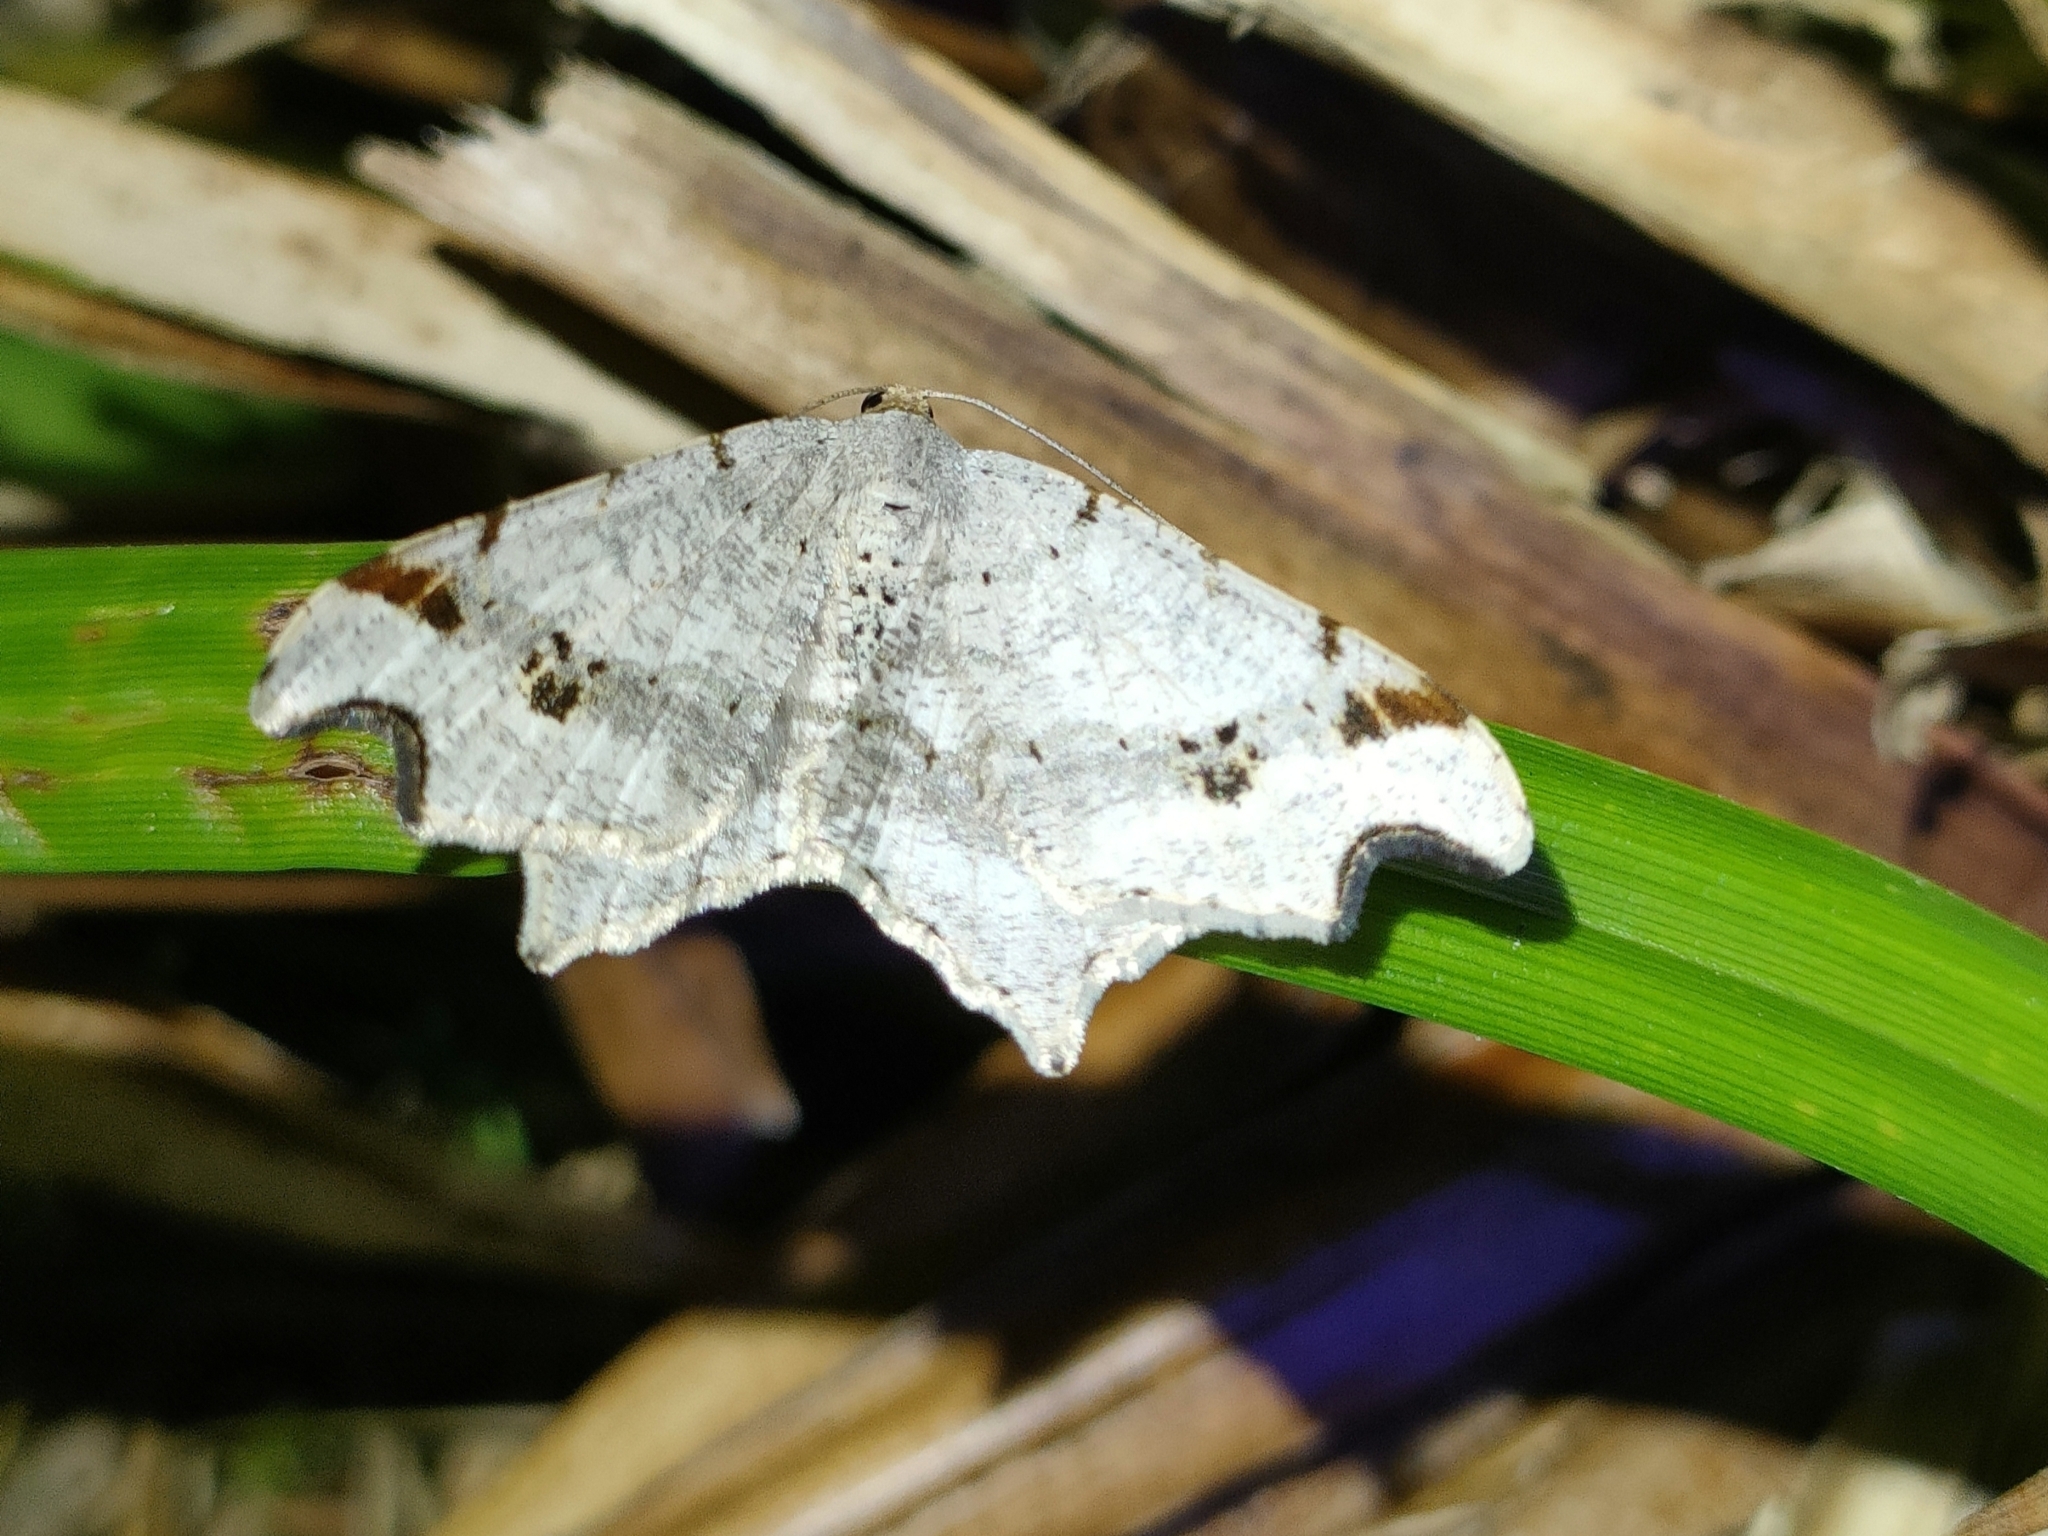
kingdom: Animalia
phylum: Arthropoda
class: Insecta
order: Lepidoptera
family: Geometridae
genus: Macaria
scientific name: Macaria alternata
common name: Sharp-angled peacock
